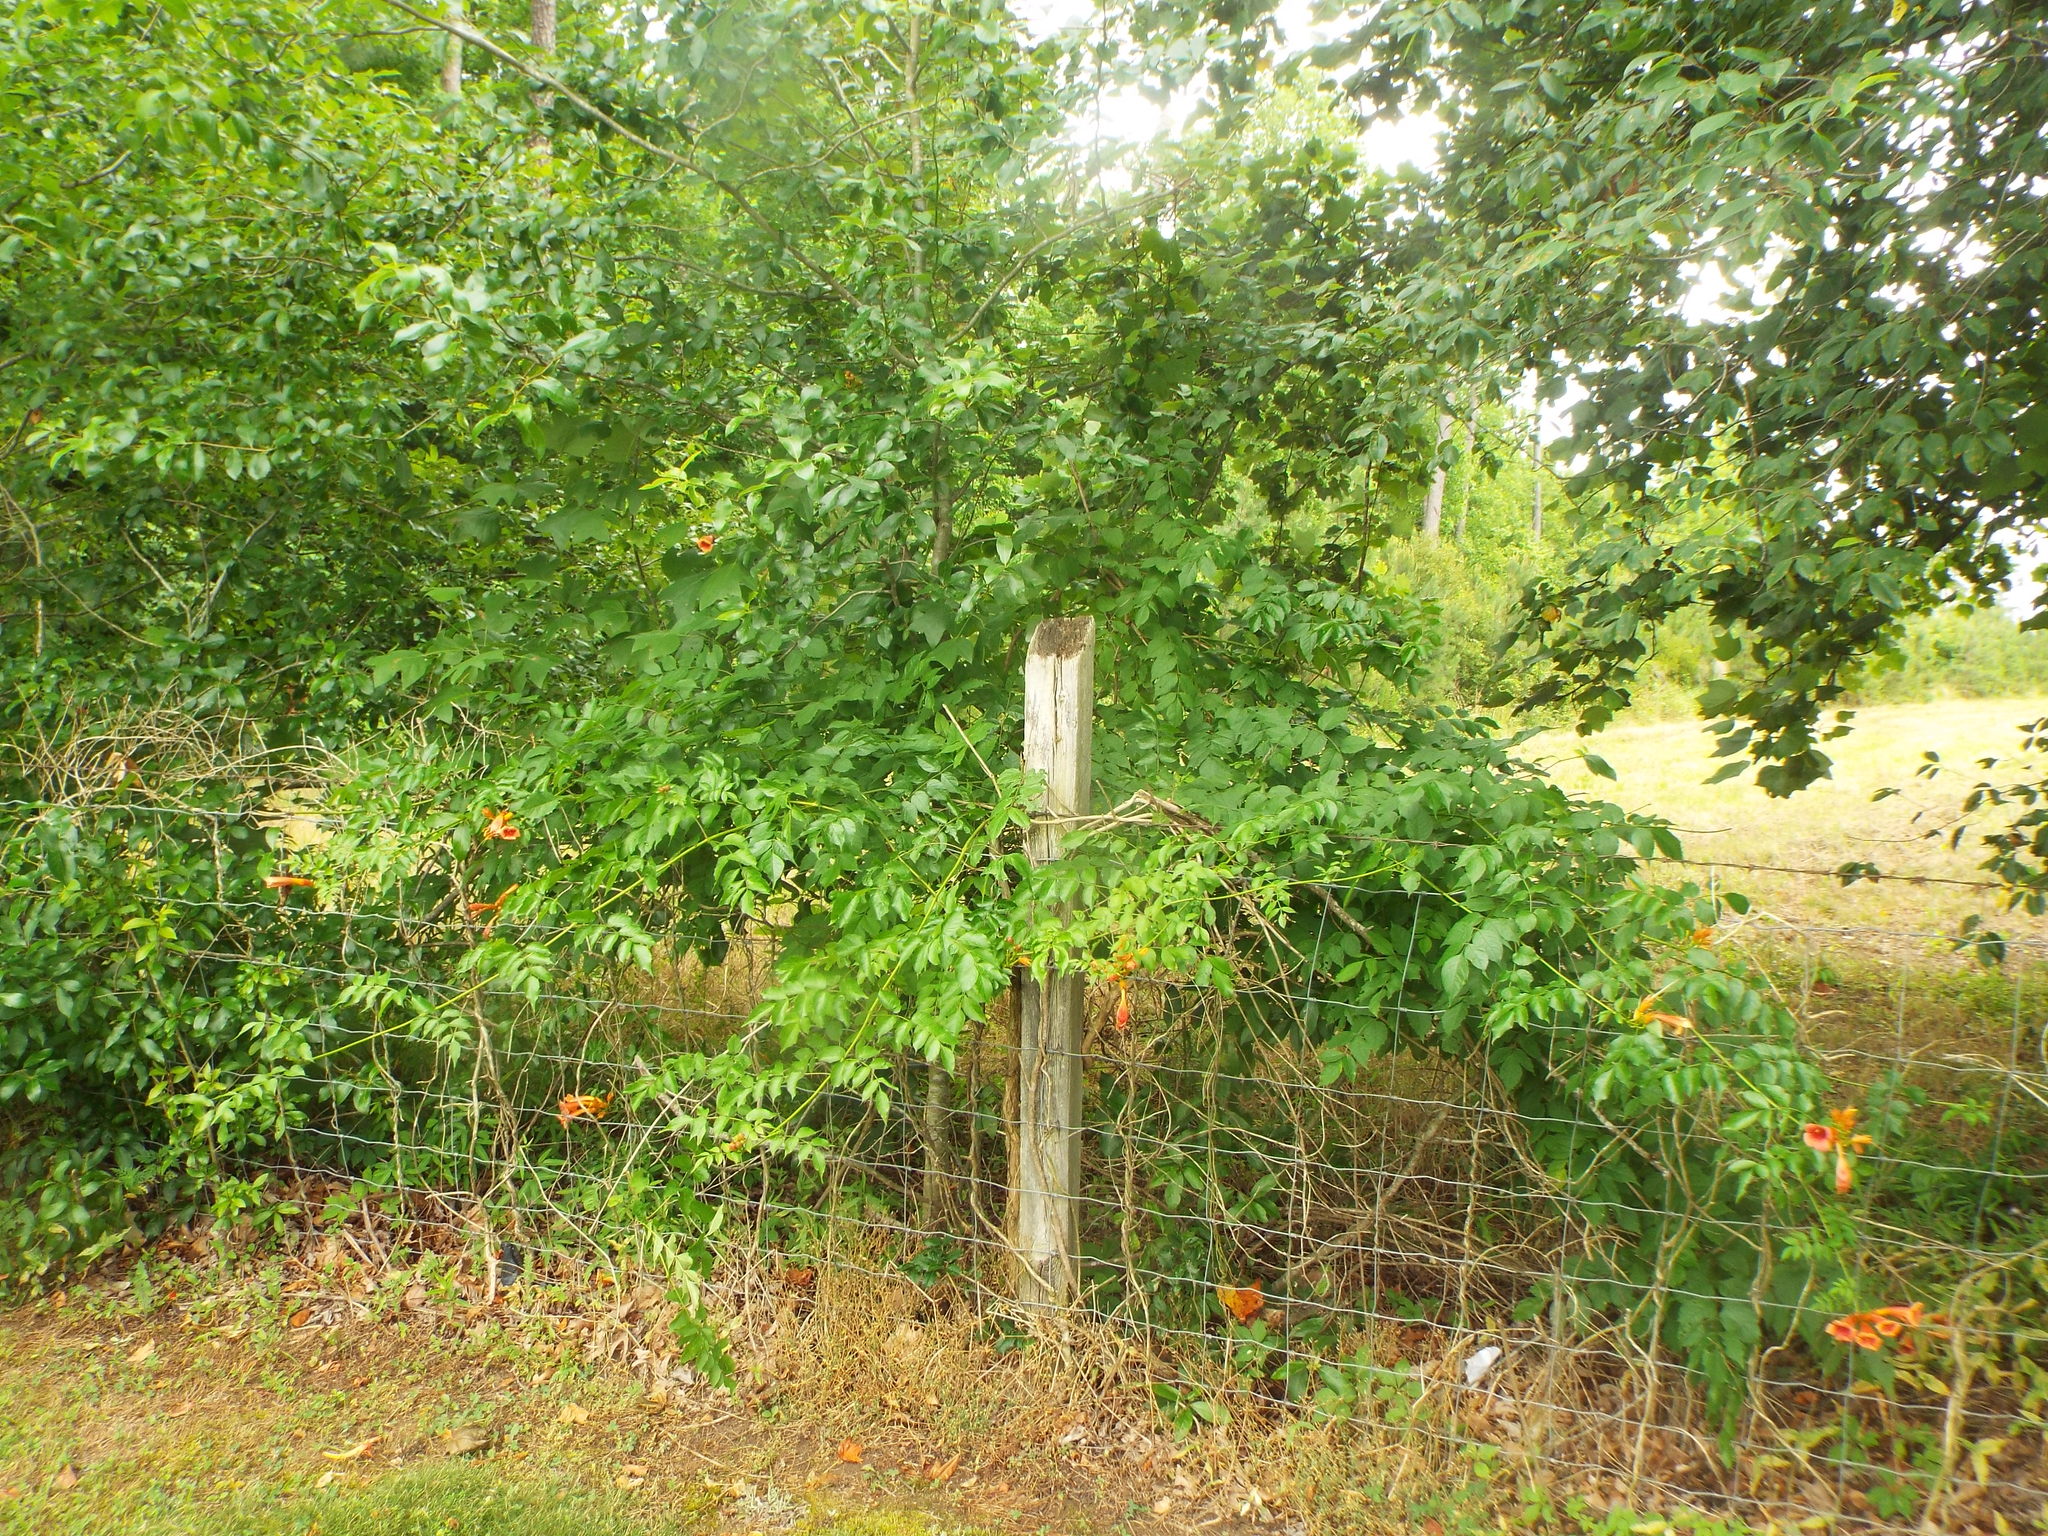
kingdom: Plantae
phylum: Tracheophyta
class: Magnoliopsida
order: Lamiales
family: Bignoniaceae
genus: Campsis
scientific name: Campsis radicans
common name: Trumpet-creeper
